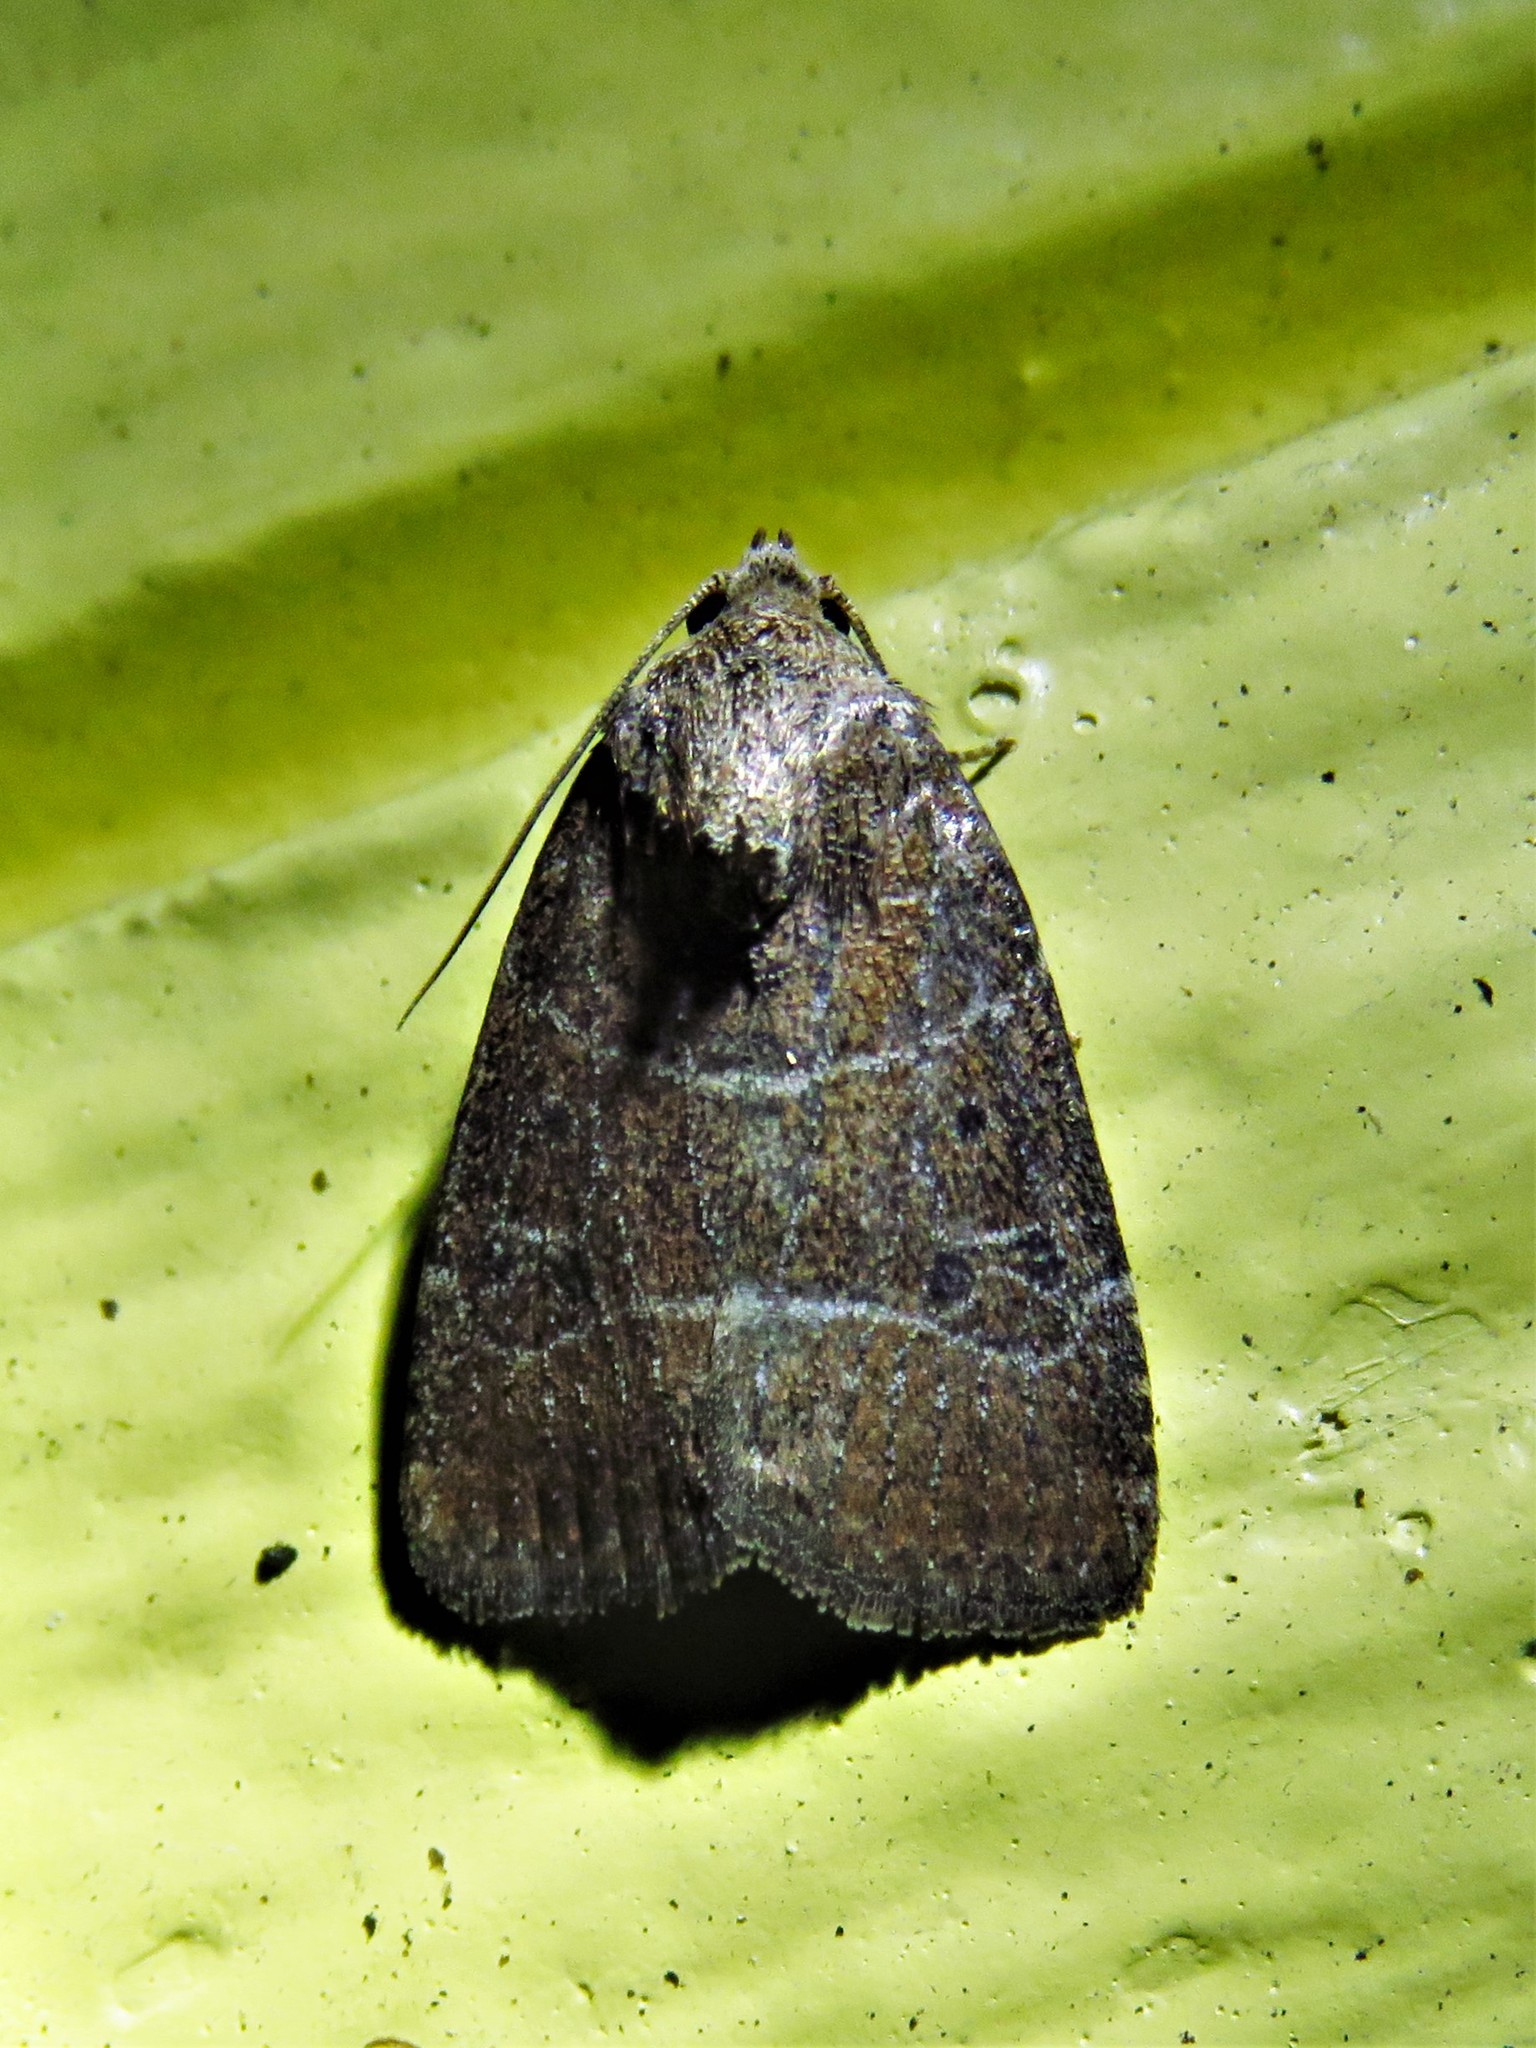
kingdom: Animalia
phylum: Arthropoda
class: Insecta
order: Lepidoptera
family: Noctuidae
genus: Elaphria
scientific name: Elaphria grata
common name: Grateful midget moth
